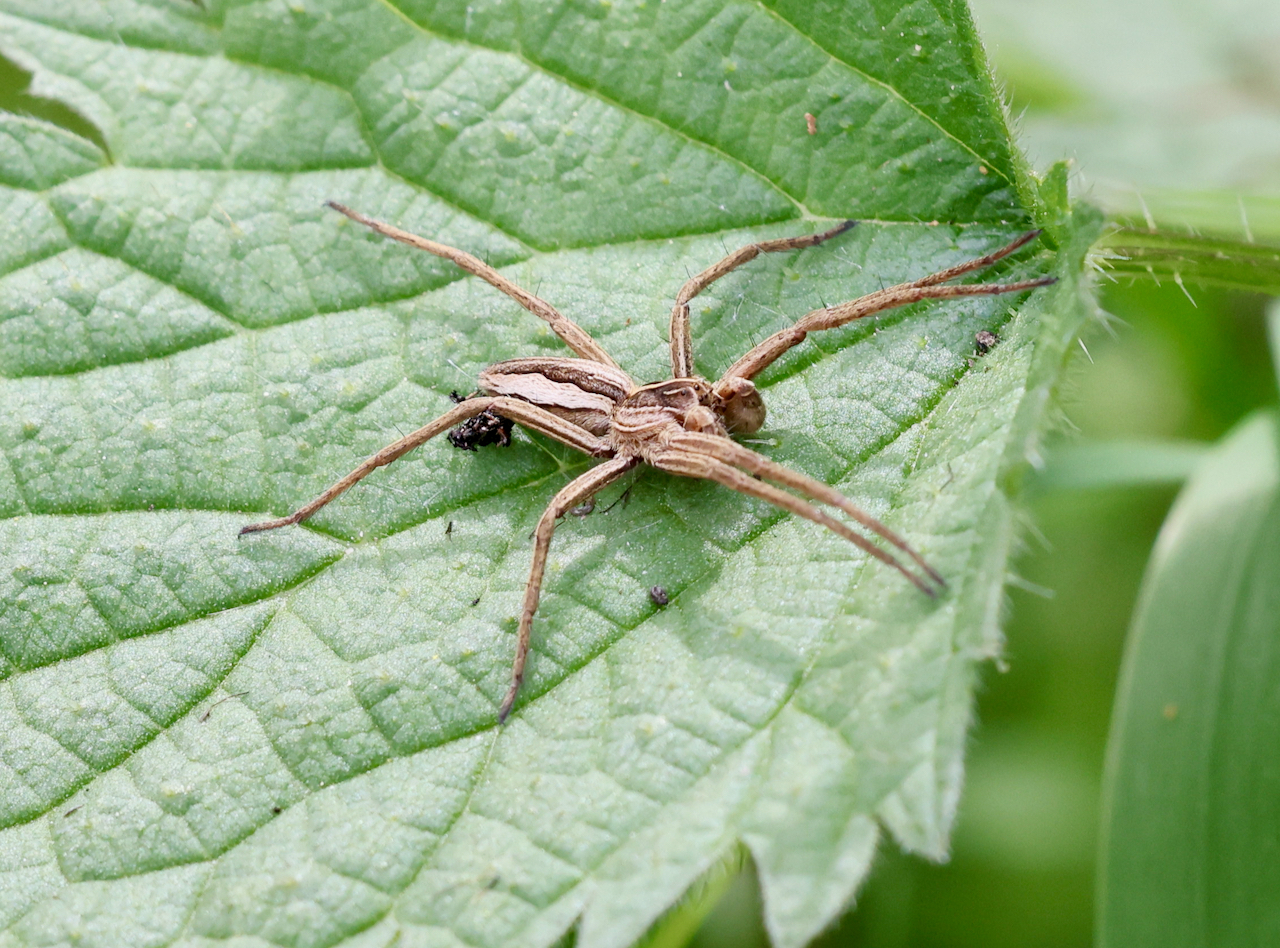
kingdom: Animalia
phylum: Arthropoda
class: Arachnida
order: Araneae
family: Pisauridae
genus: Pisaura
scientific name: Pisaura mirabilis
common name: Tent spider
